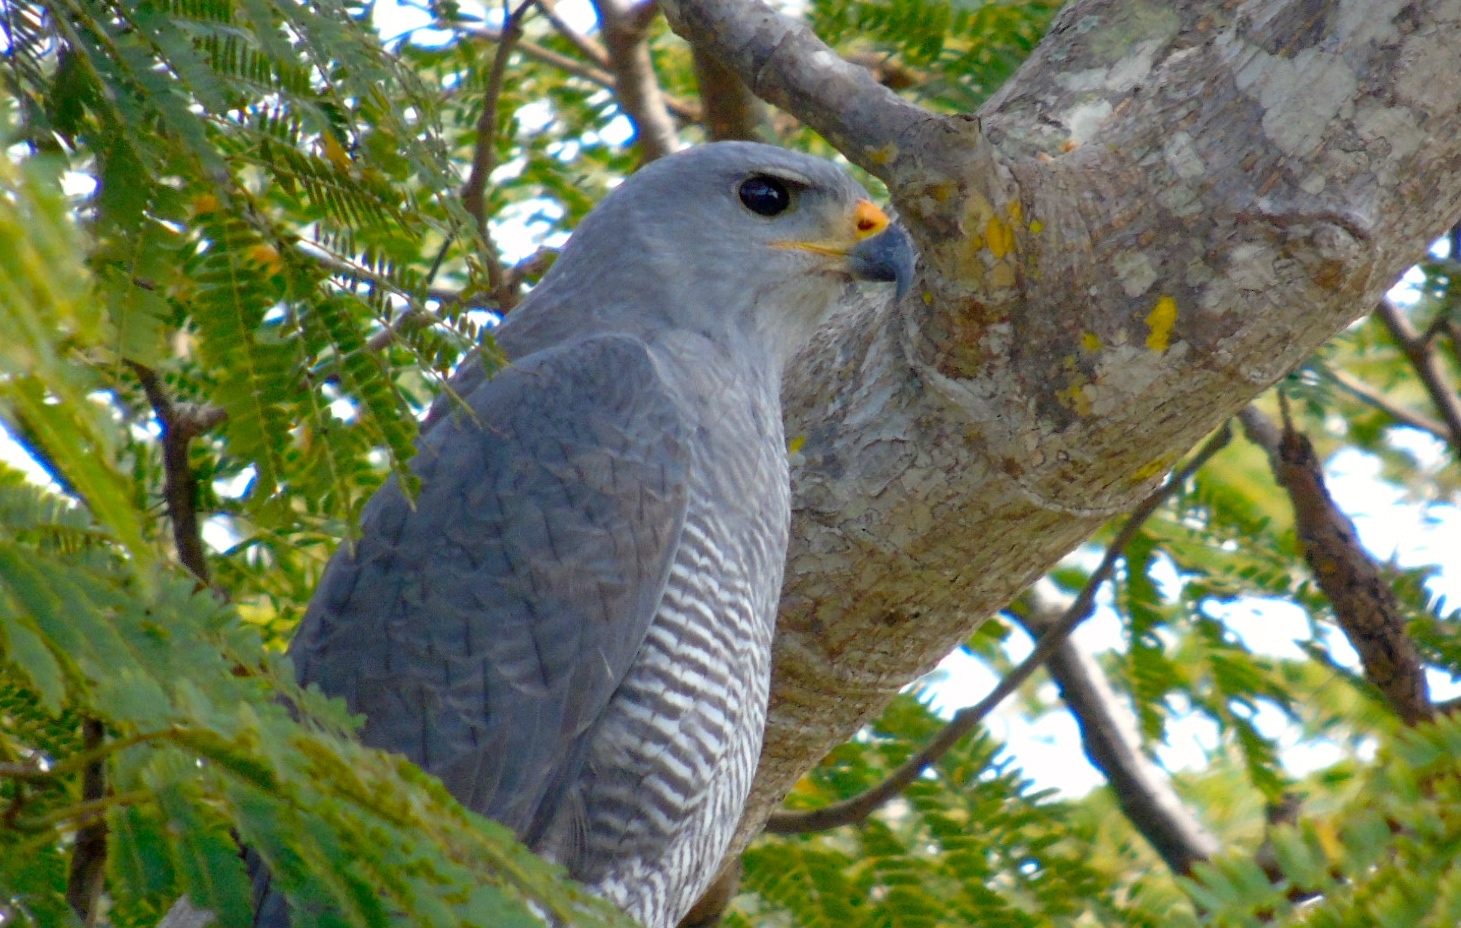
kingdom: Animalia
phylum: Chordata
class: Aves
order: Accipitriformes
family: Accipitridae
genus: Buteo
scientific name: Buteo nitidus
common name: Grey-lined hawk
